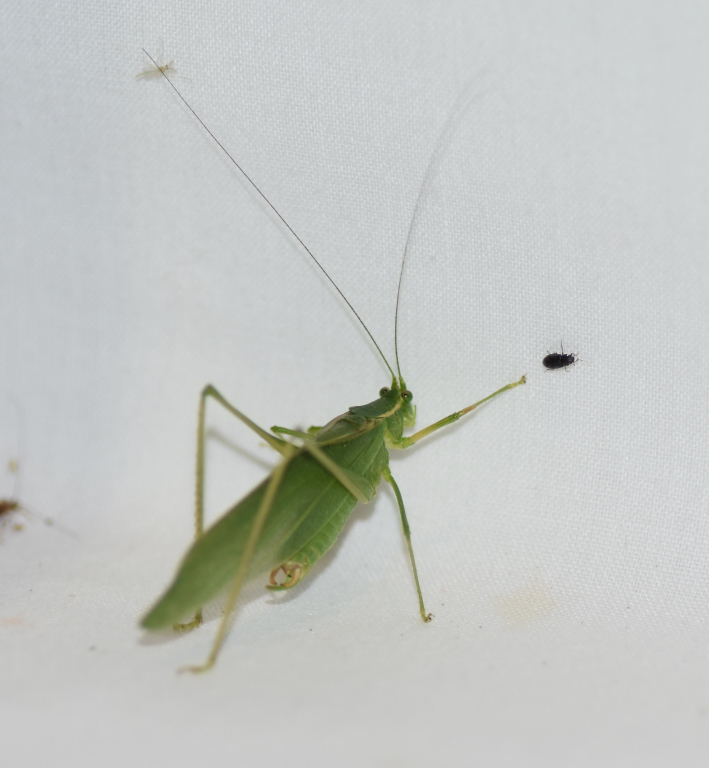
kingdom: Animalia
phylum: Arthropoda
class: Insecta
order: Orthoptera
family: Tettigoniidae
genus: Scudderia
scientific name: Scudderia septentrionalis
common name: Northern bush-katydid
